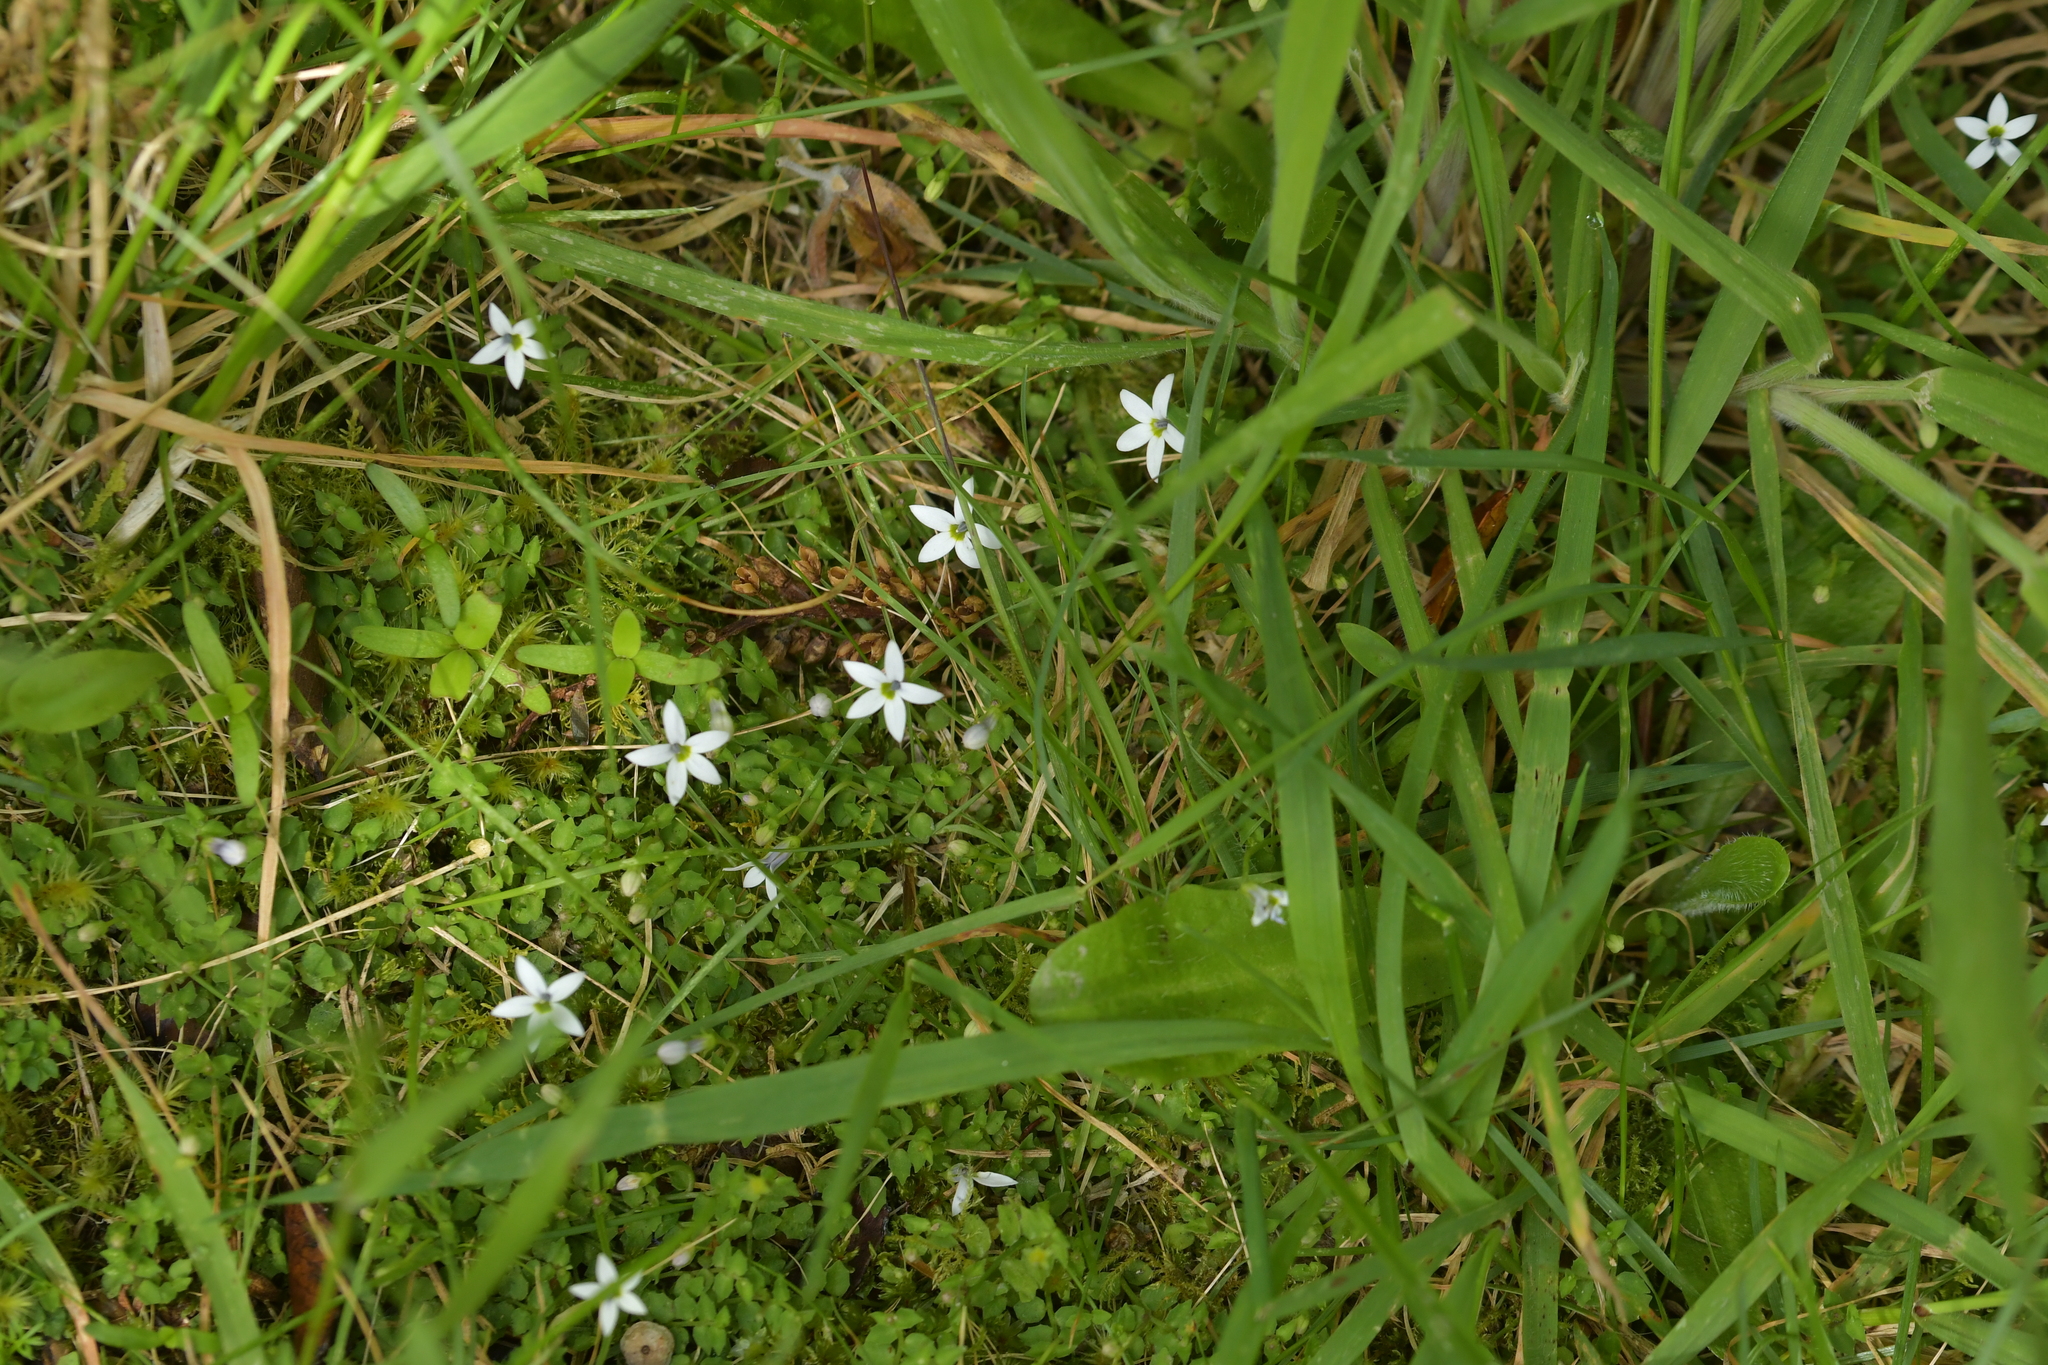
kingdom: Plantae
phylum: Tracheophyta
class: Magnoliopsida
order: Asterales
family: Campanulaceae
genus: Lobelia
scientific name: Lobelia angulata
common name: Lawn lobelia
